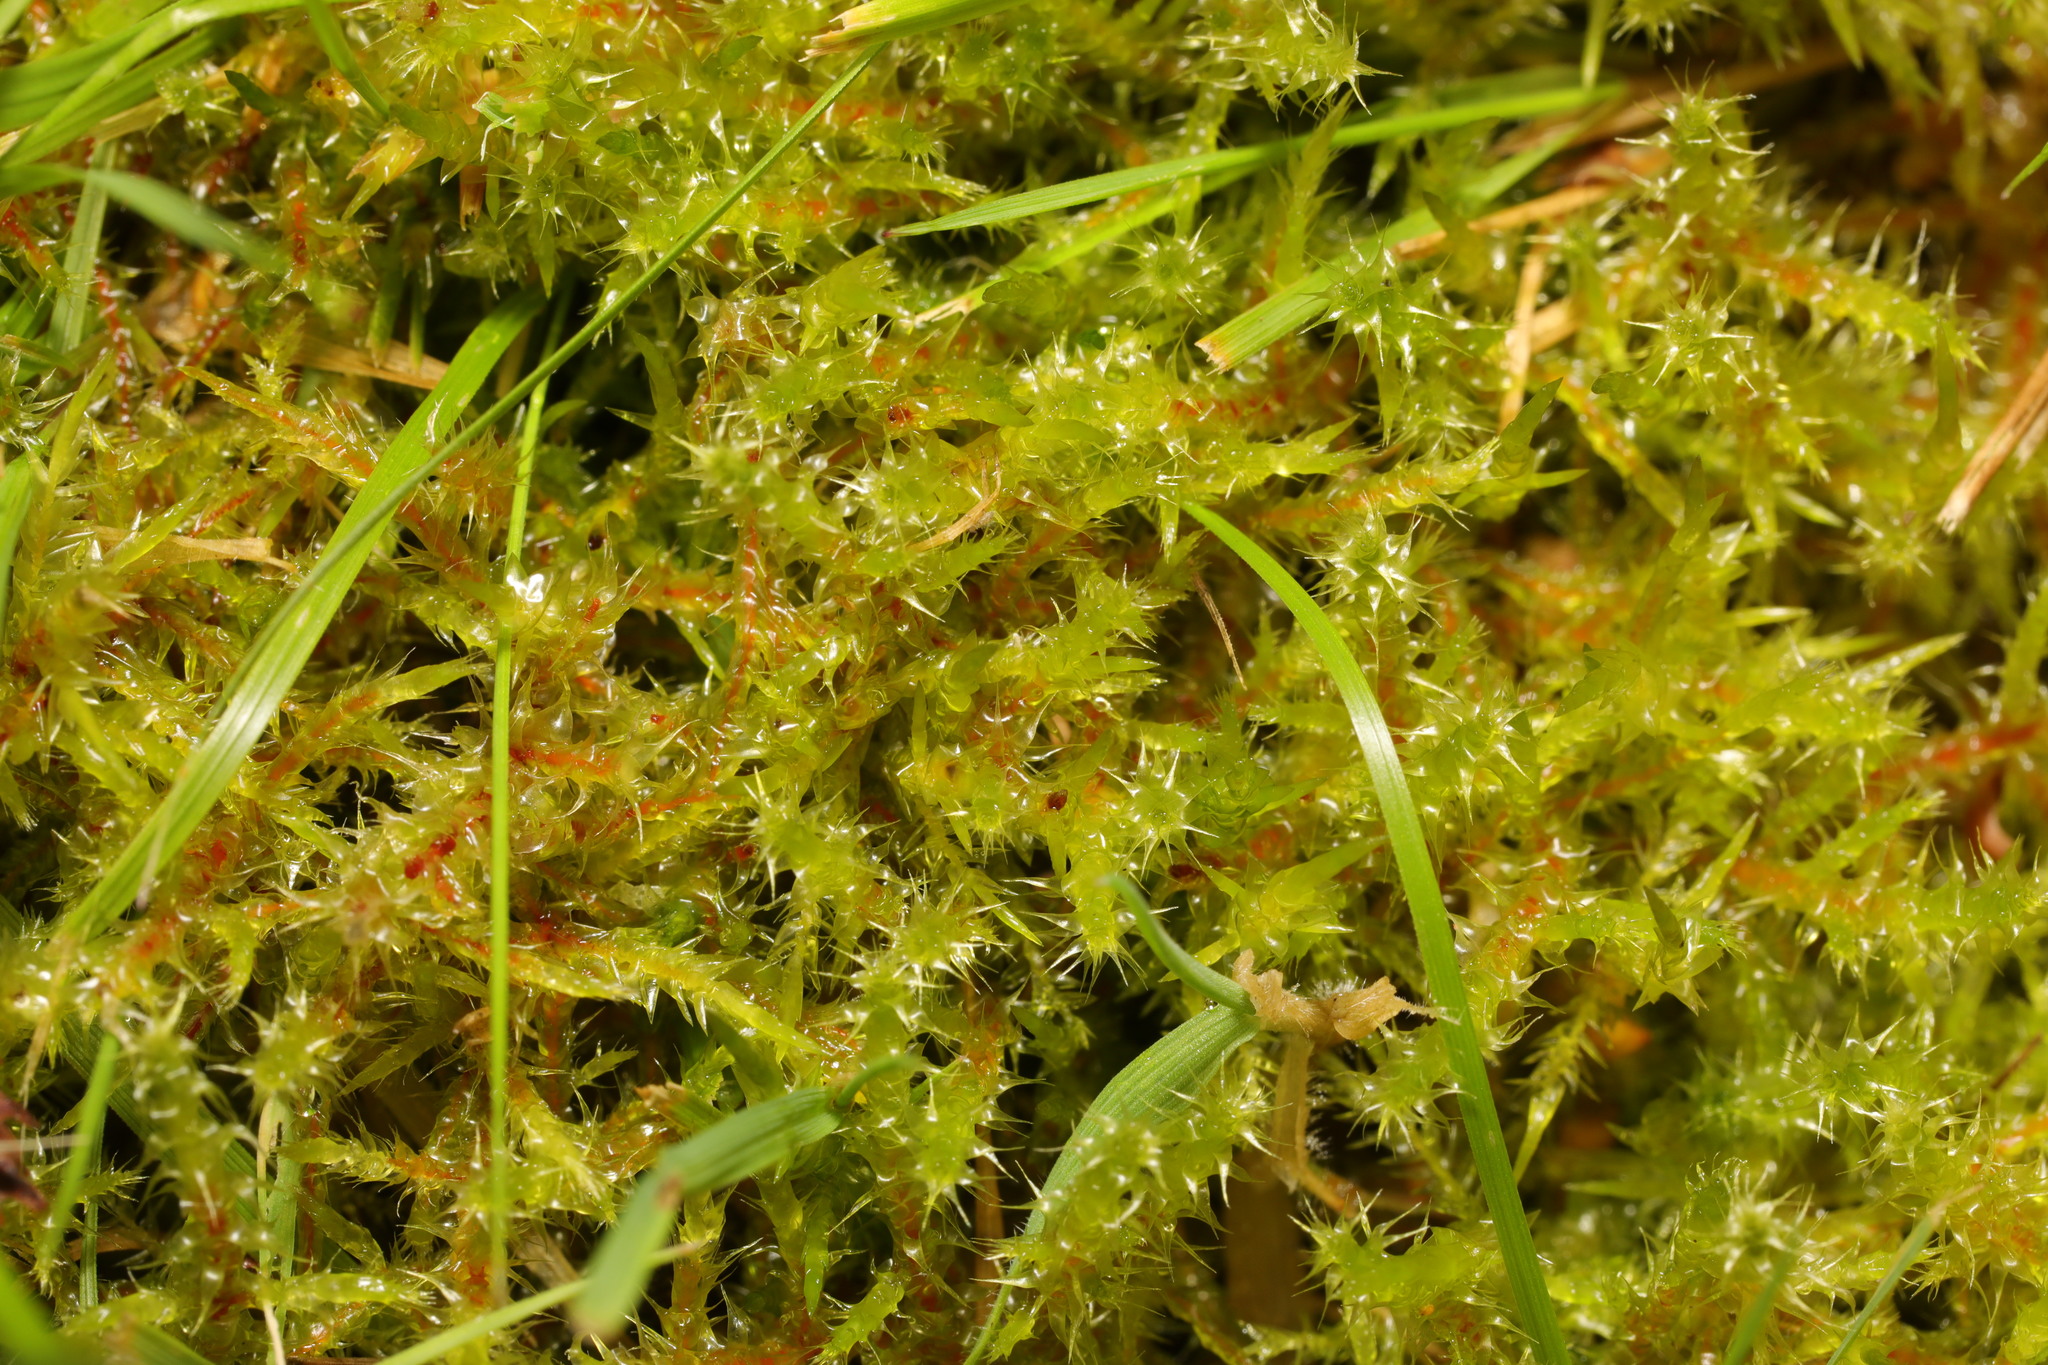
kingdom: Plantae
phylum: Bryophyta
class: Bryopsida
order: Hypnales
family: Hylocomiaceae
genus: Rhytidiadelphus
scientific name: Rhytidiadelphus squarrosus
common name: Springy turf-moss
